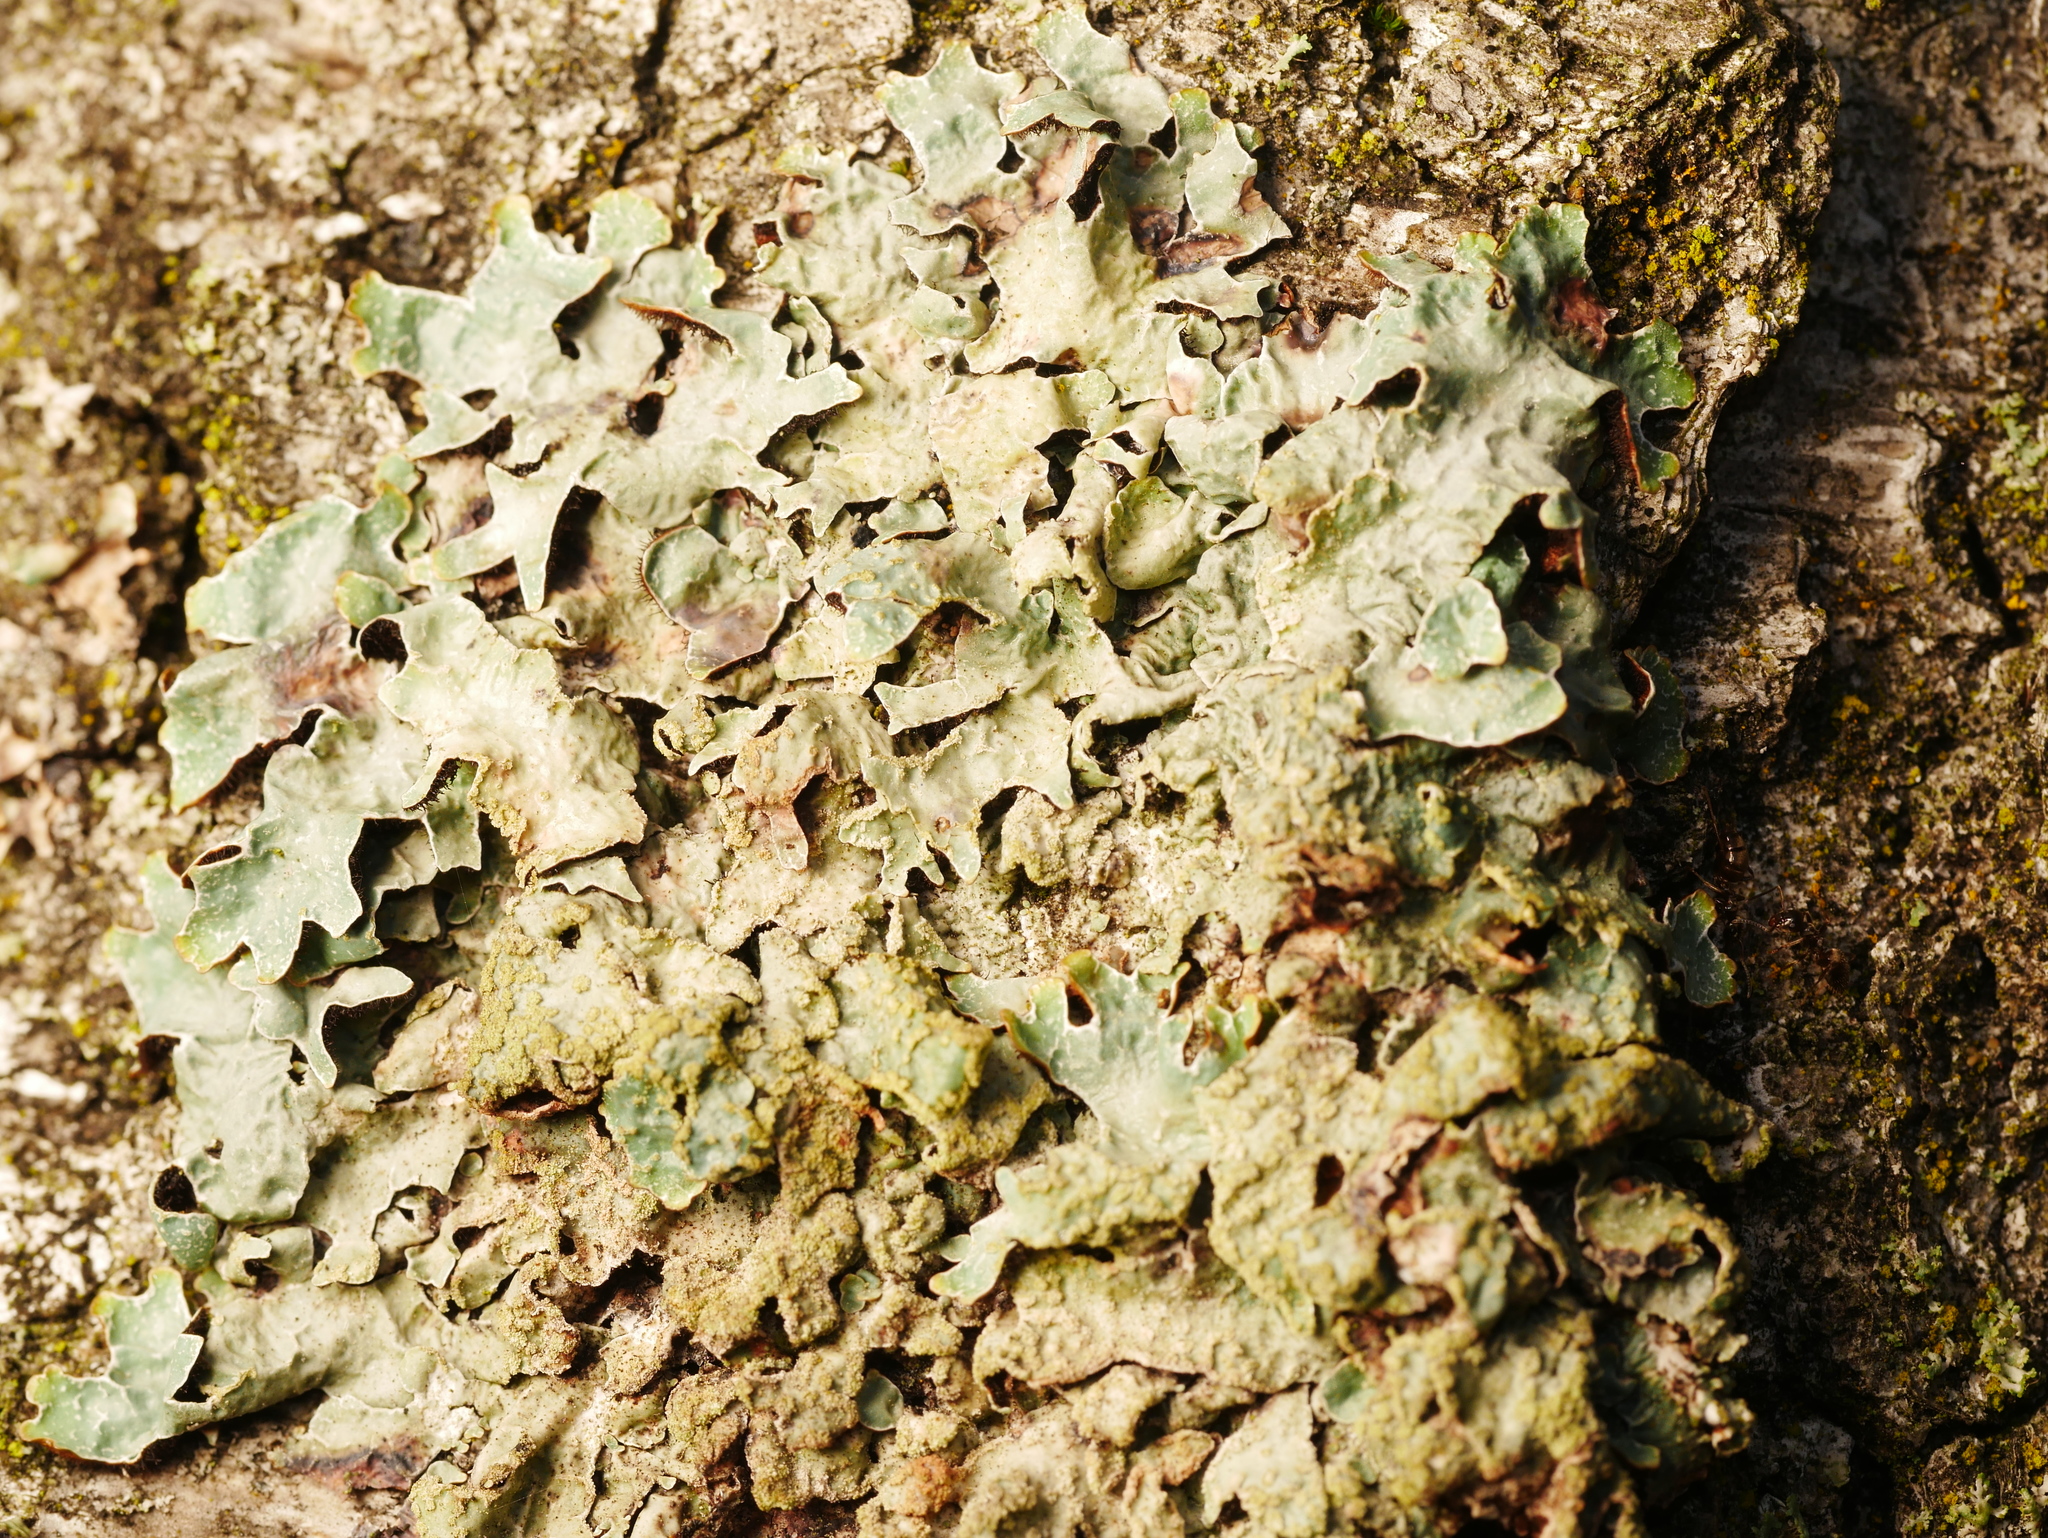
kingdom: Fungi
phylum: Ascomycota
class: Lecanoromycetes
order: Lecanorales
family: Parmeliaceae
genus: Parmelia
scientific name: Parmelia sulcata
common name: Netted shield lichen
